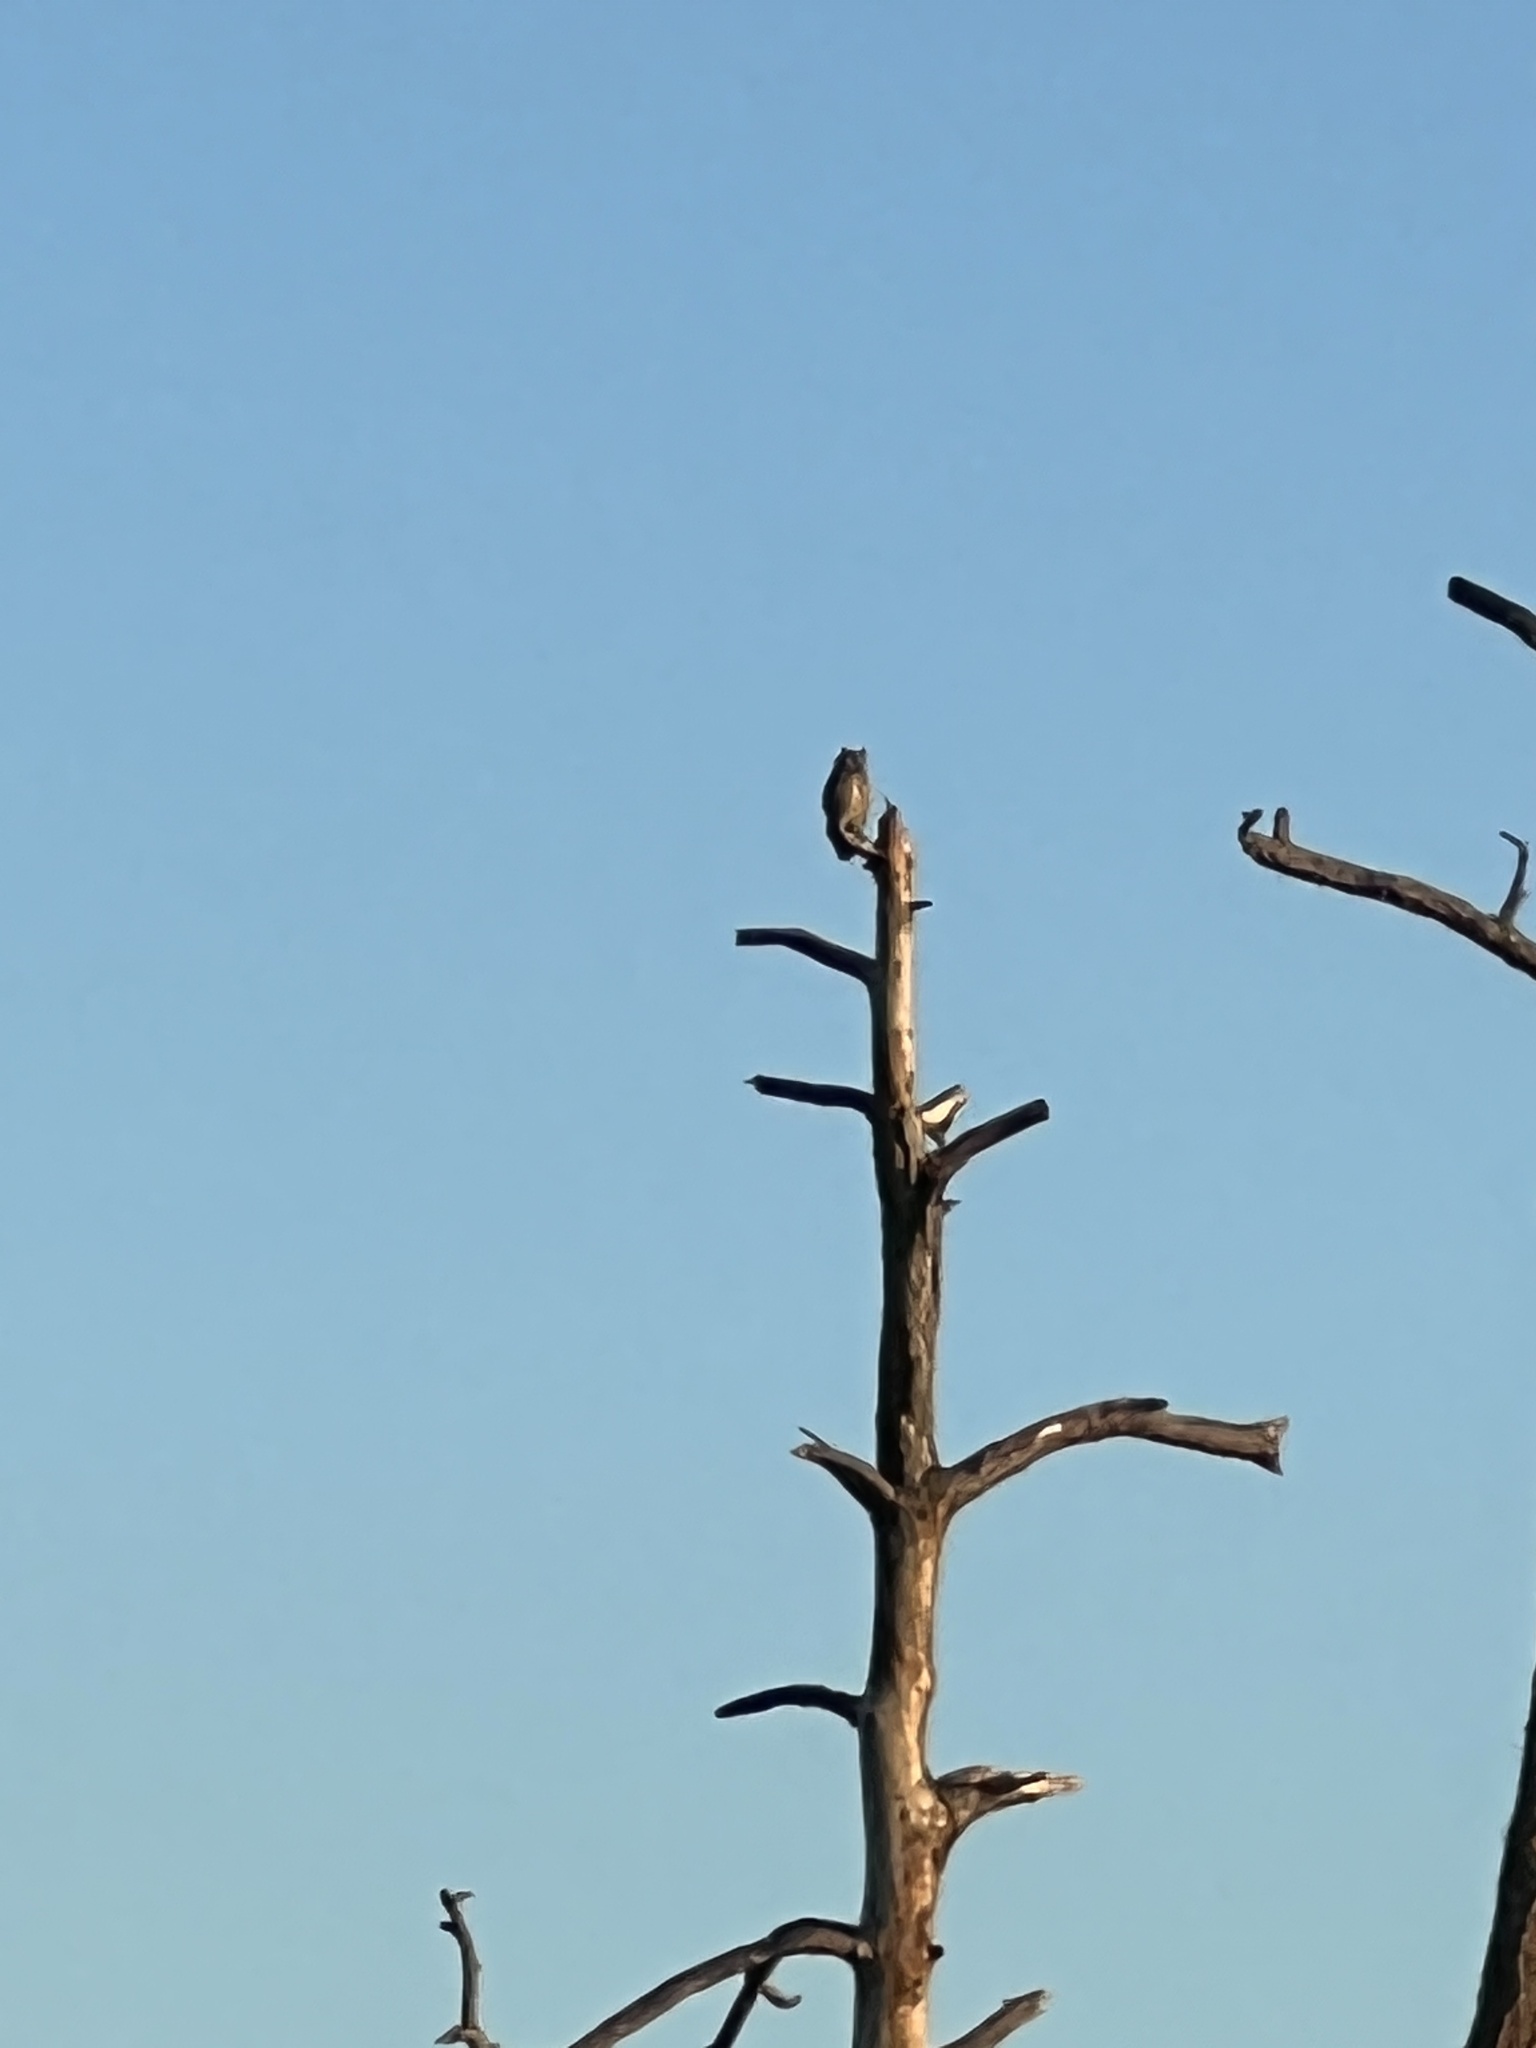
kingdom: Animalia
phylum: Chordata
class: Aves
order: Strigiformes
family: Strigidae
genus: Bubo
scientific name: Bubo virginianus
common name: Great horned owl
